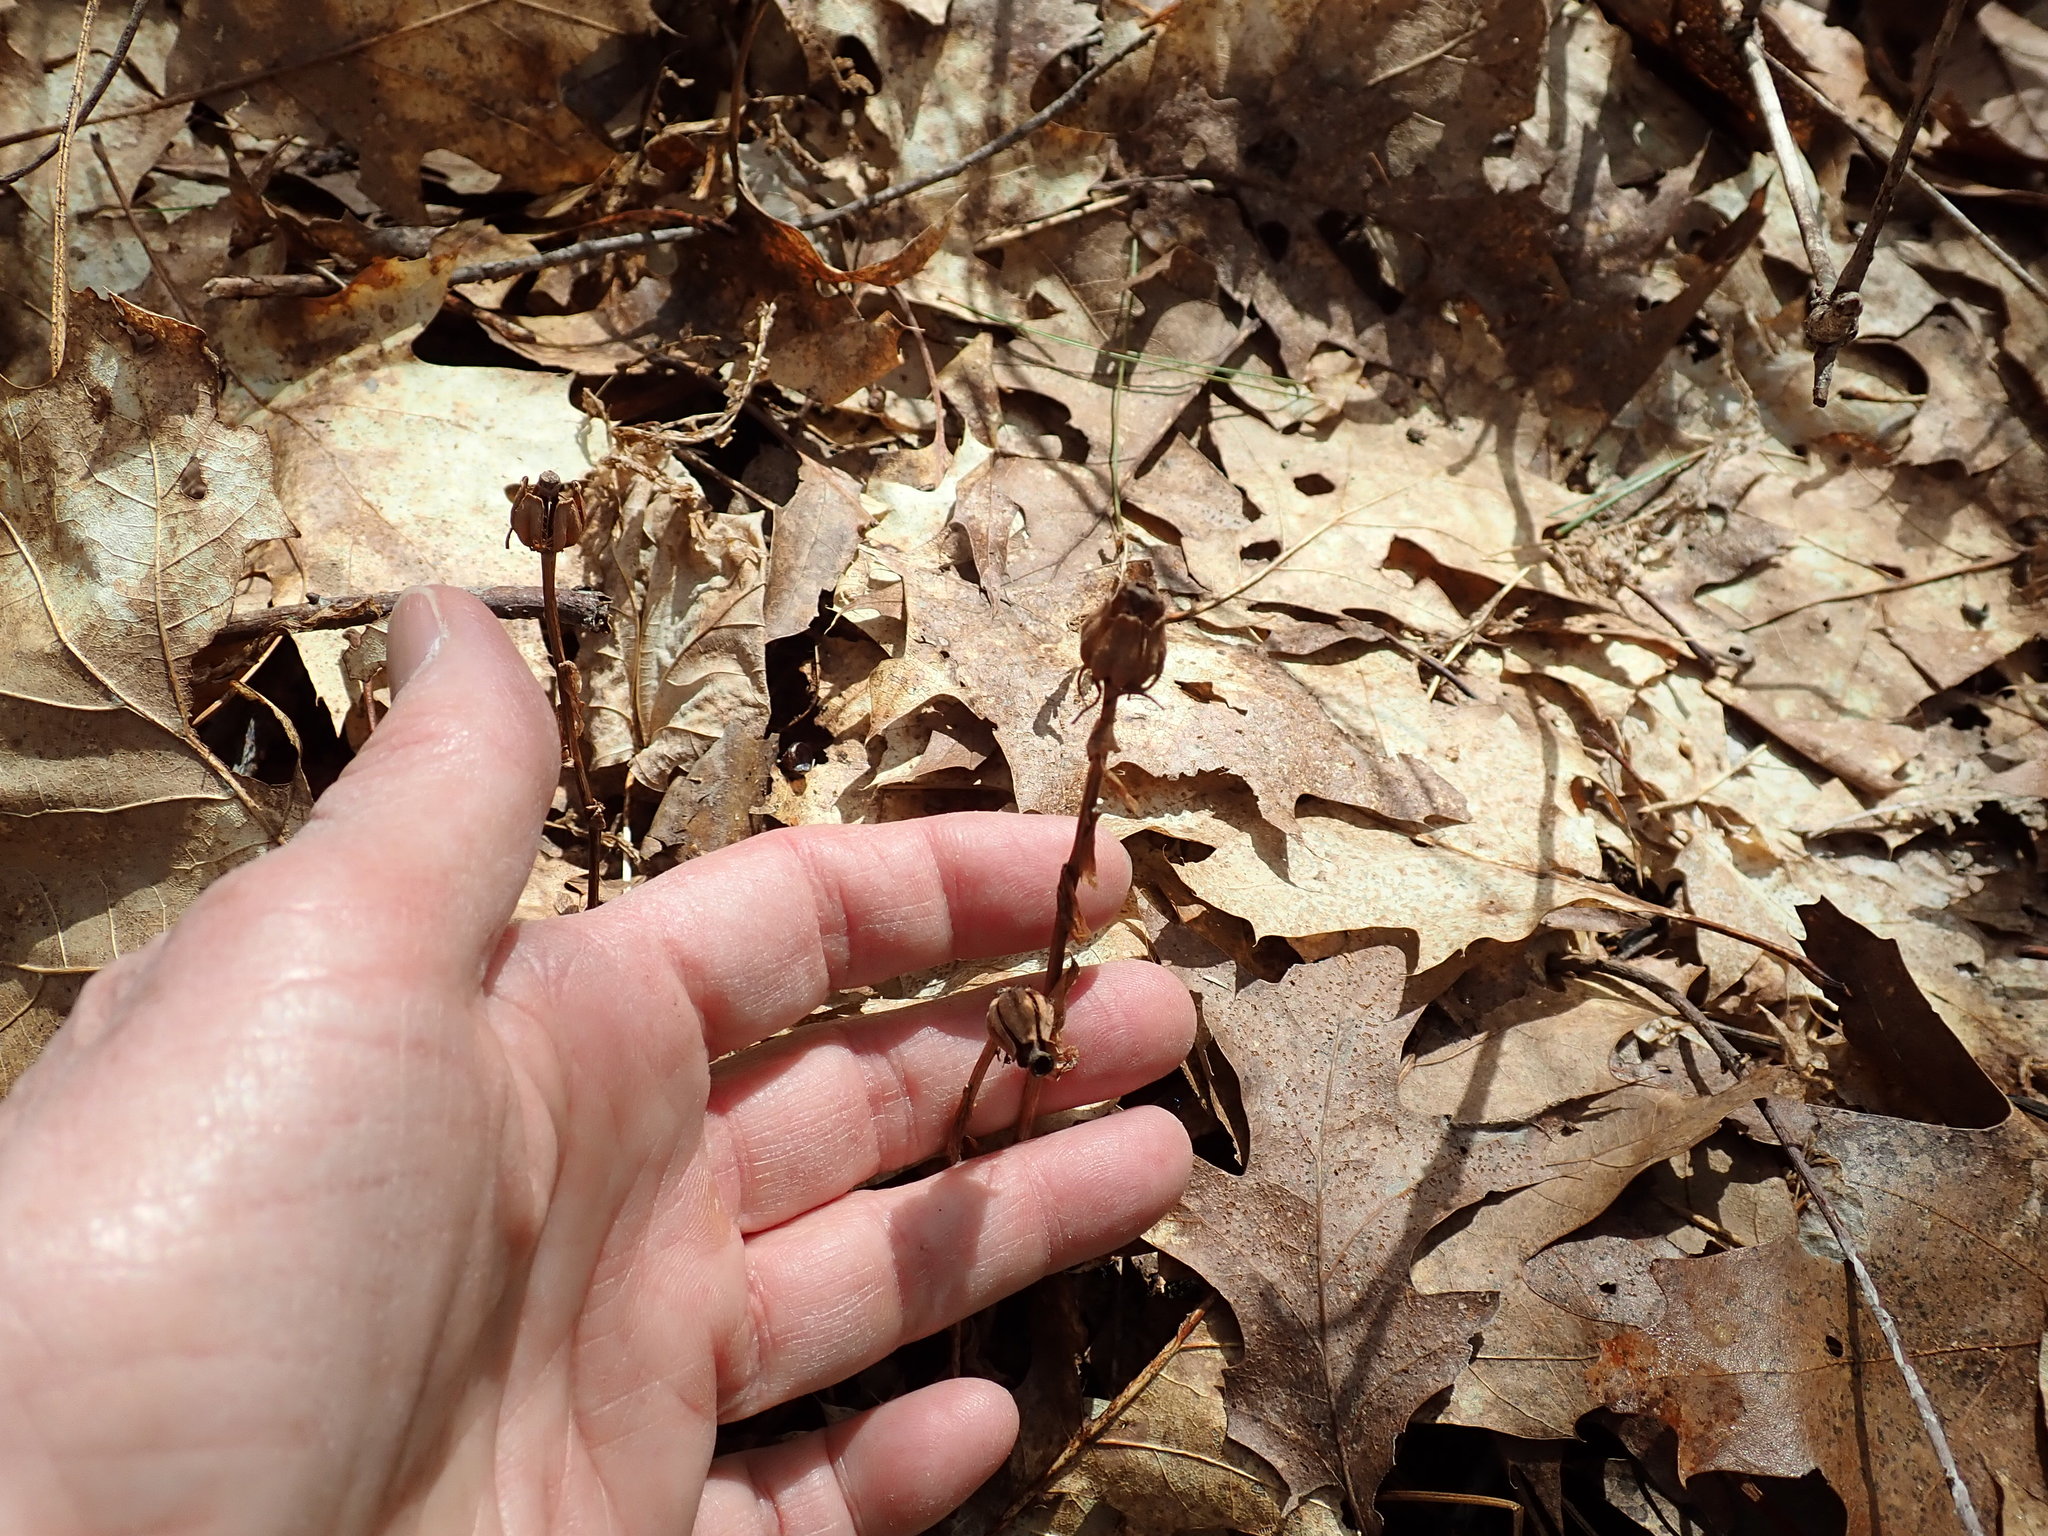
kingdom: Plantae
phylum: Tracheophyta
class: Magnoliopsida
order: Ericales
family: Ericaceae
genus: Monotropa
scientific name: Monotropa uniflora
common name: Convulsion root
